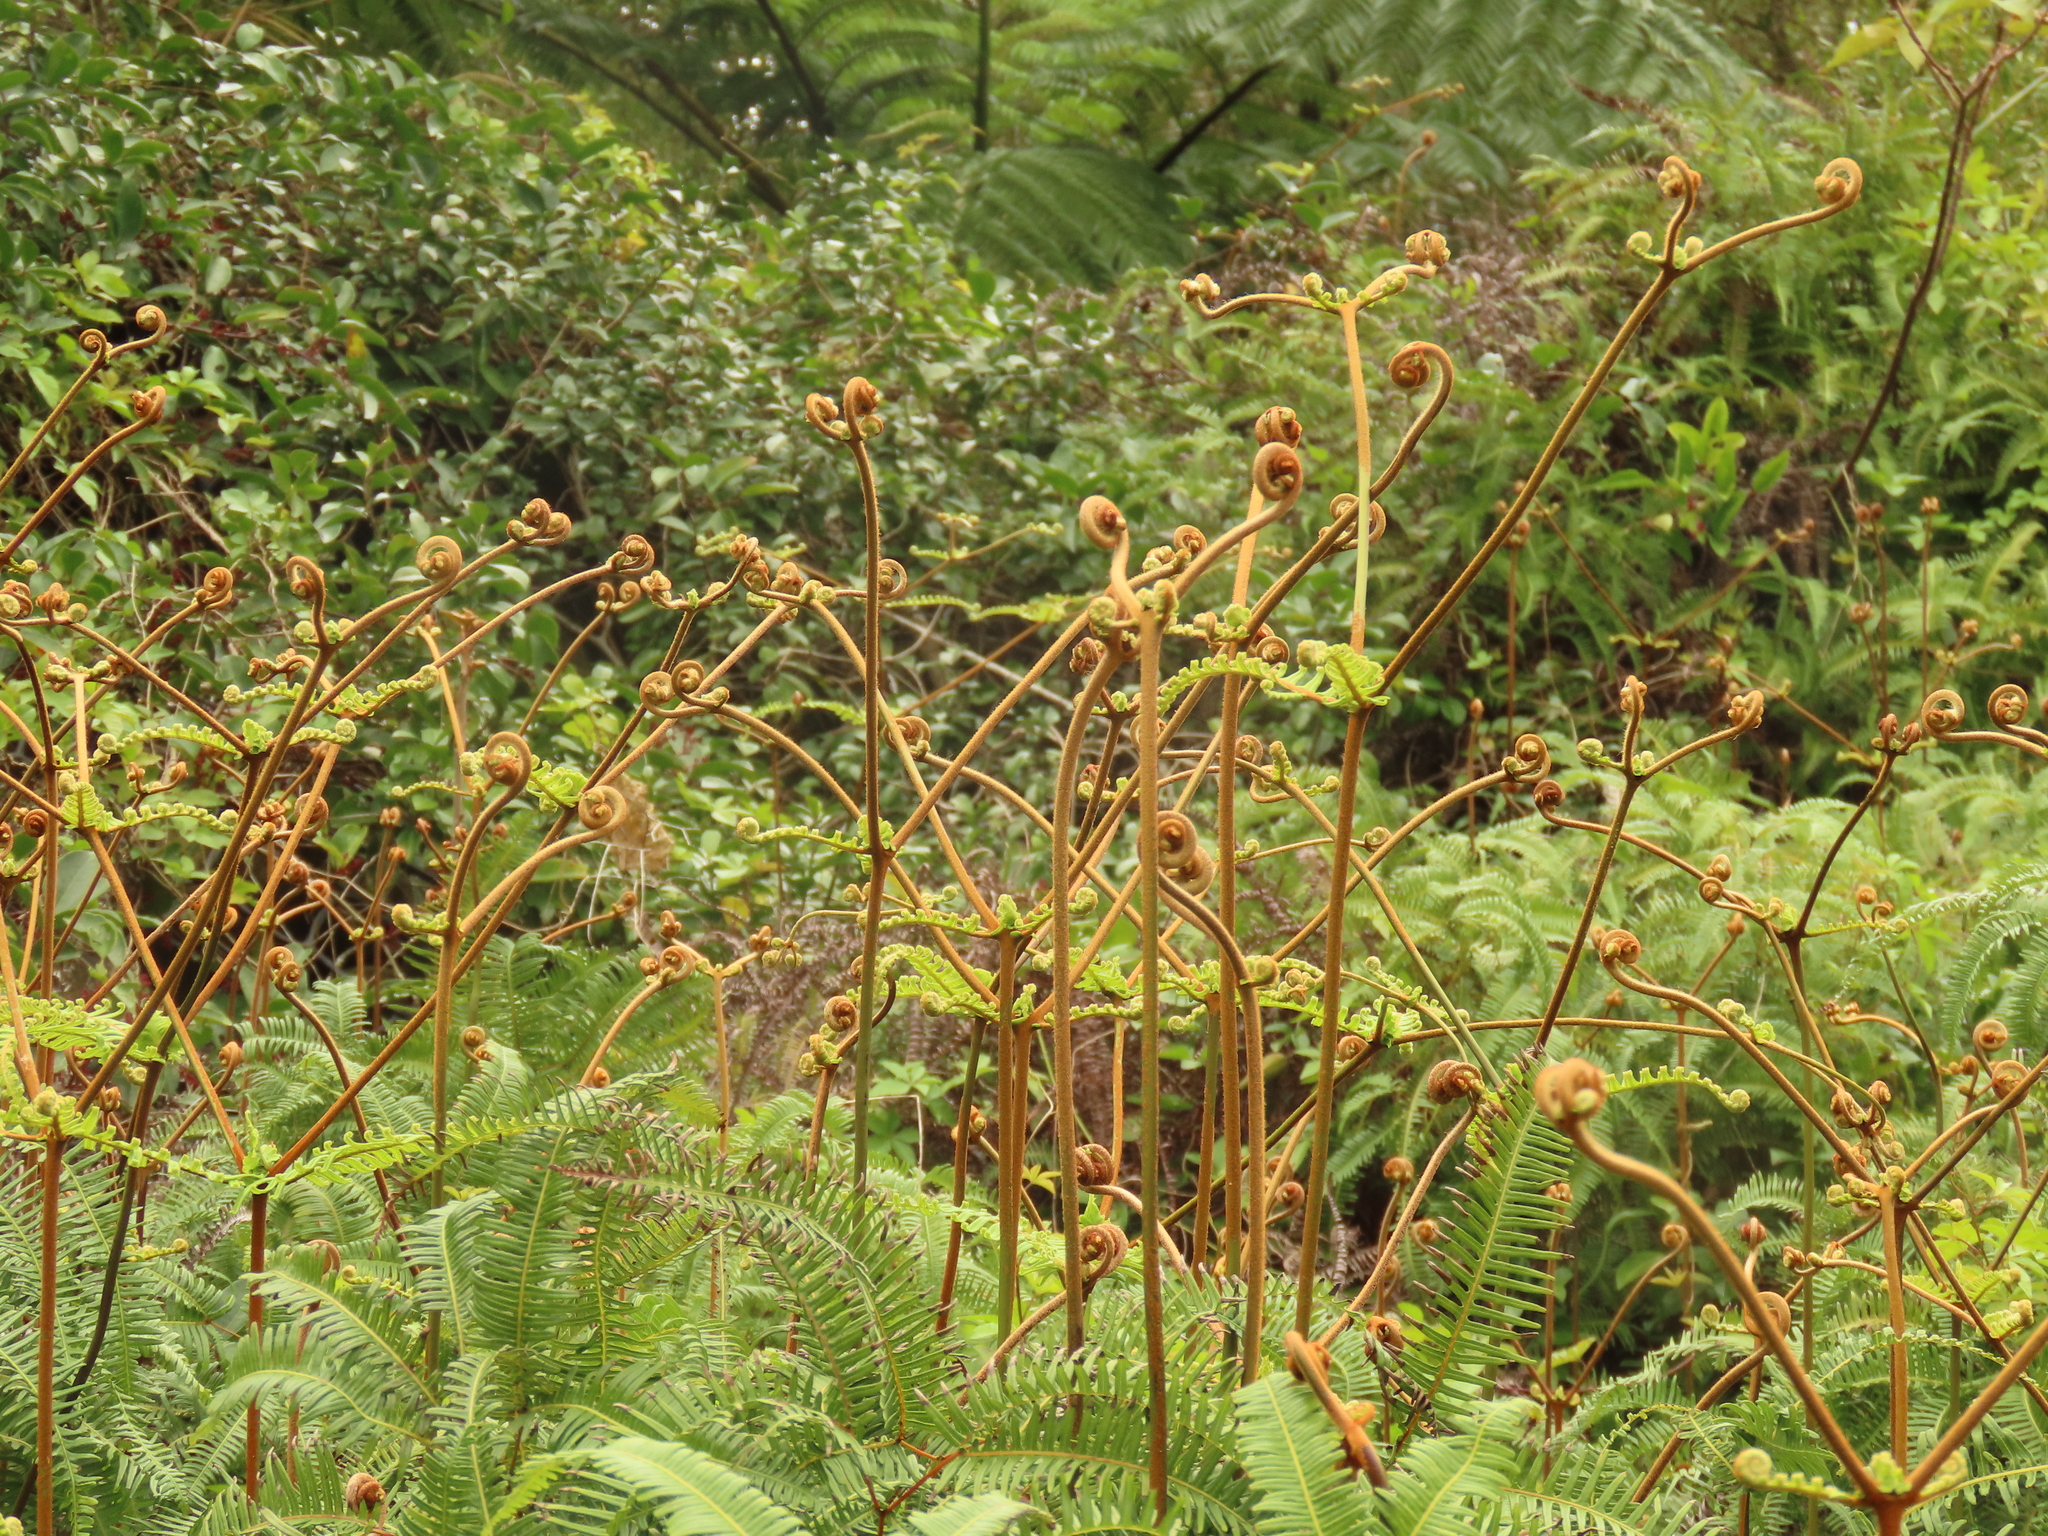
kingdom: Plantae
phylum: Tracheophyta
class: Polypodiopsida
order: Gleicheniales
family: Gleicheniaceae
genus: Dicranopteris
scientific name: Dicranopteris linearis
